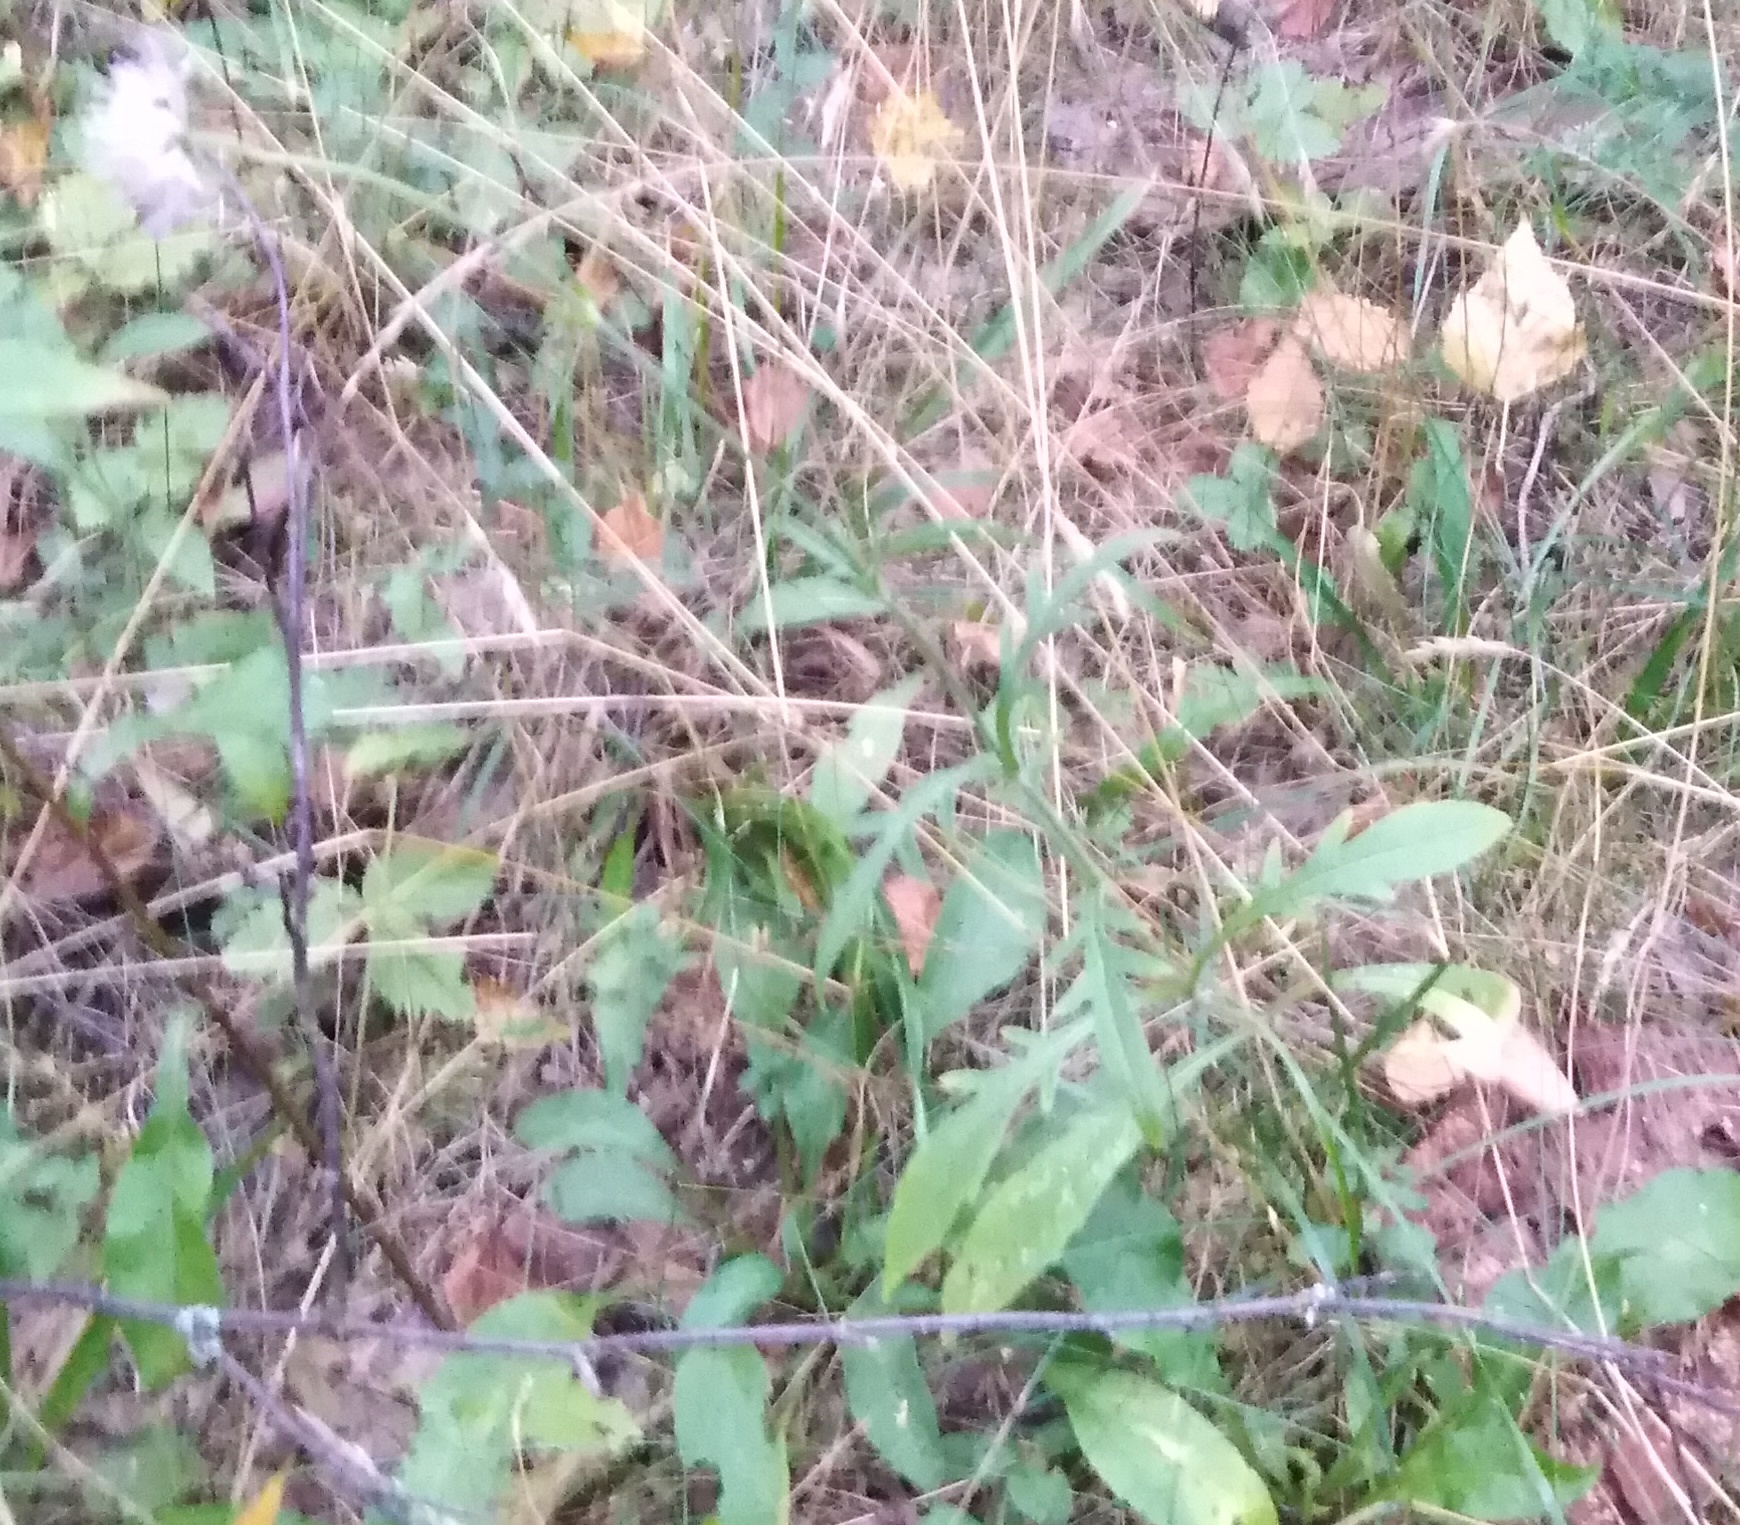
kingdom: Plantae
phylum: Tracheophyta
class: Magnoliopsida
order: Dipsacales
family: Caprifoliaceae
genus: Knautia
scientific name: Knautia arvensis
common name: Field scabiosa
